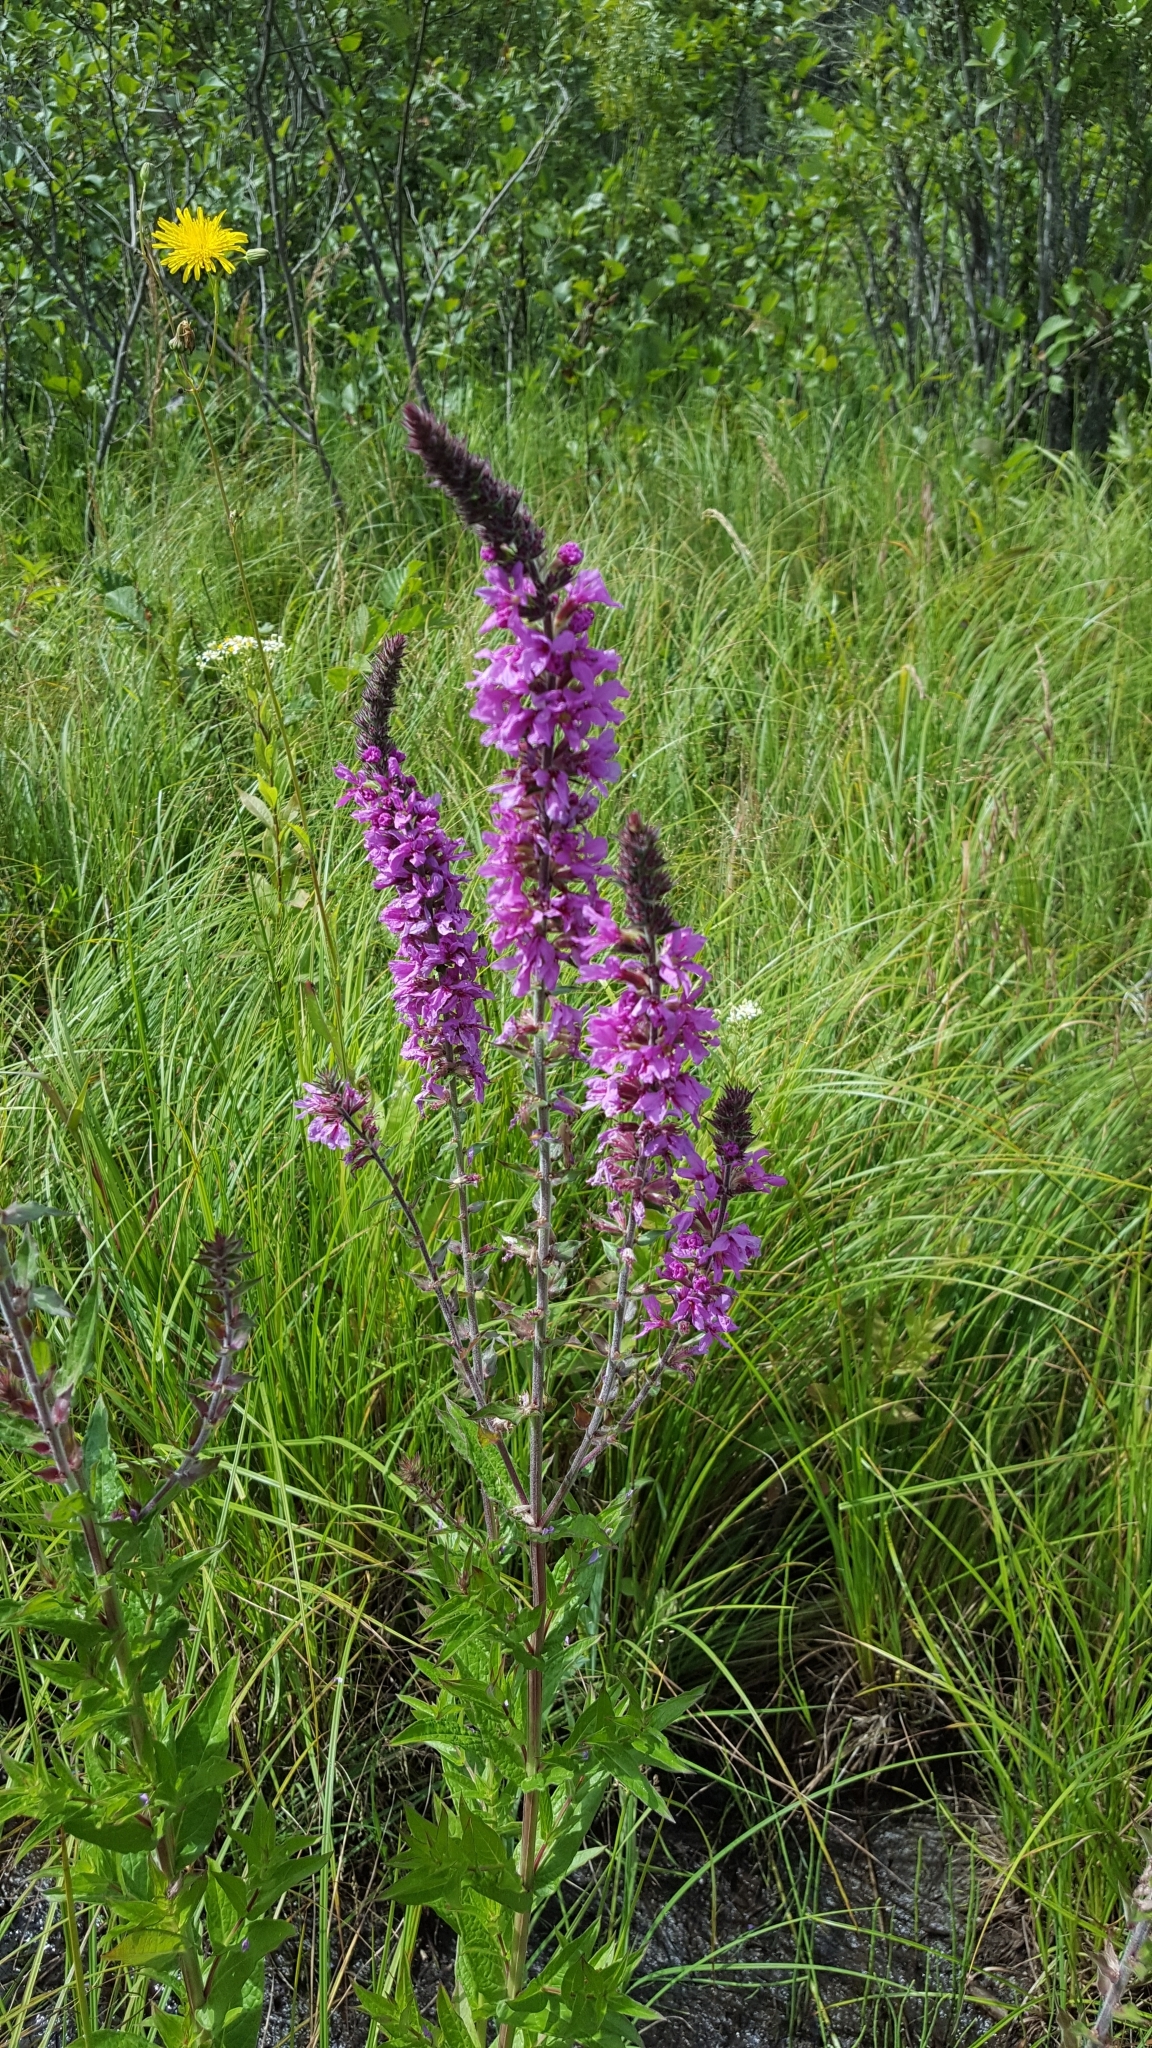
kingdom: Plantae
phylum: Tracheophyta
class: Magnoliopsida
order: Myrtales
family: Lythraceae
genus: Lythrum
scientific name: Lythrum salicaria
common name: Purple loosestrife
